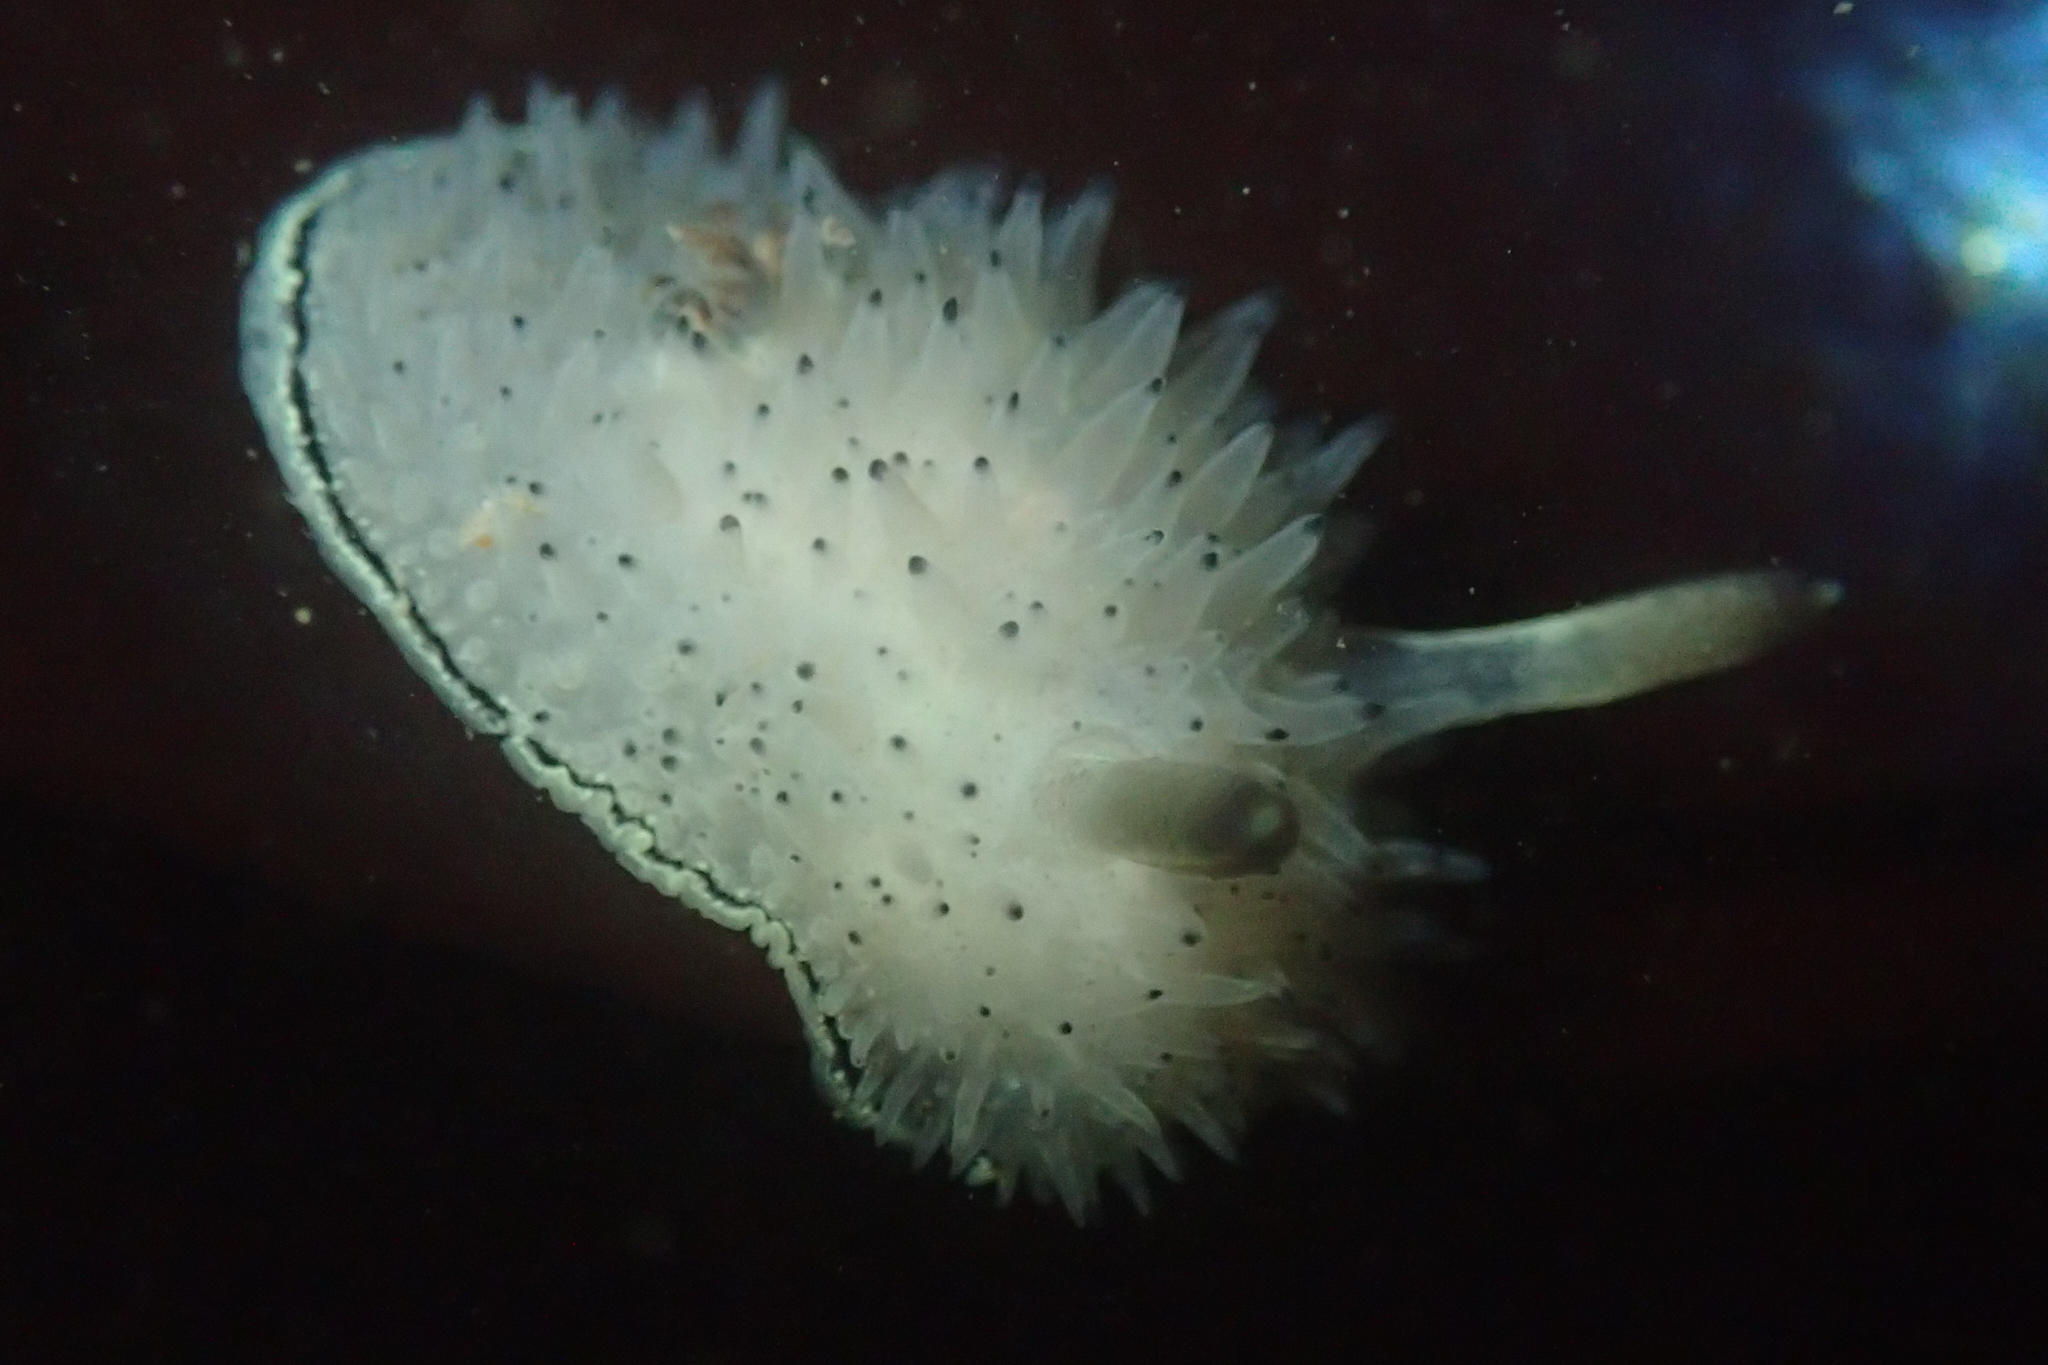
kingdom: Animalia
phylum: Mollusca
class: Gastropoda
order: Nudibranchia
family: Onchidorididae
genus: Acanthodoris
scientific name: Acanthodoris rhodoceras
